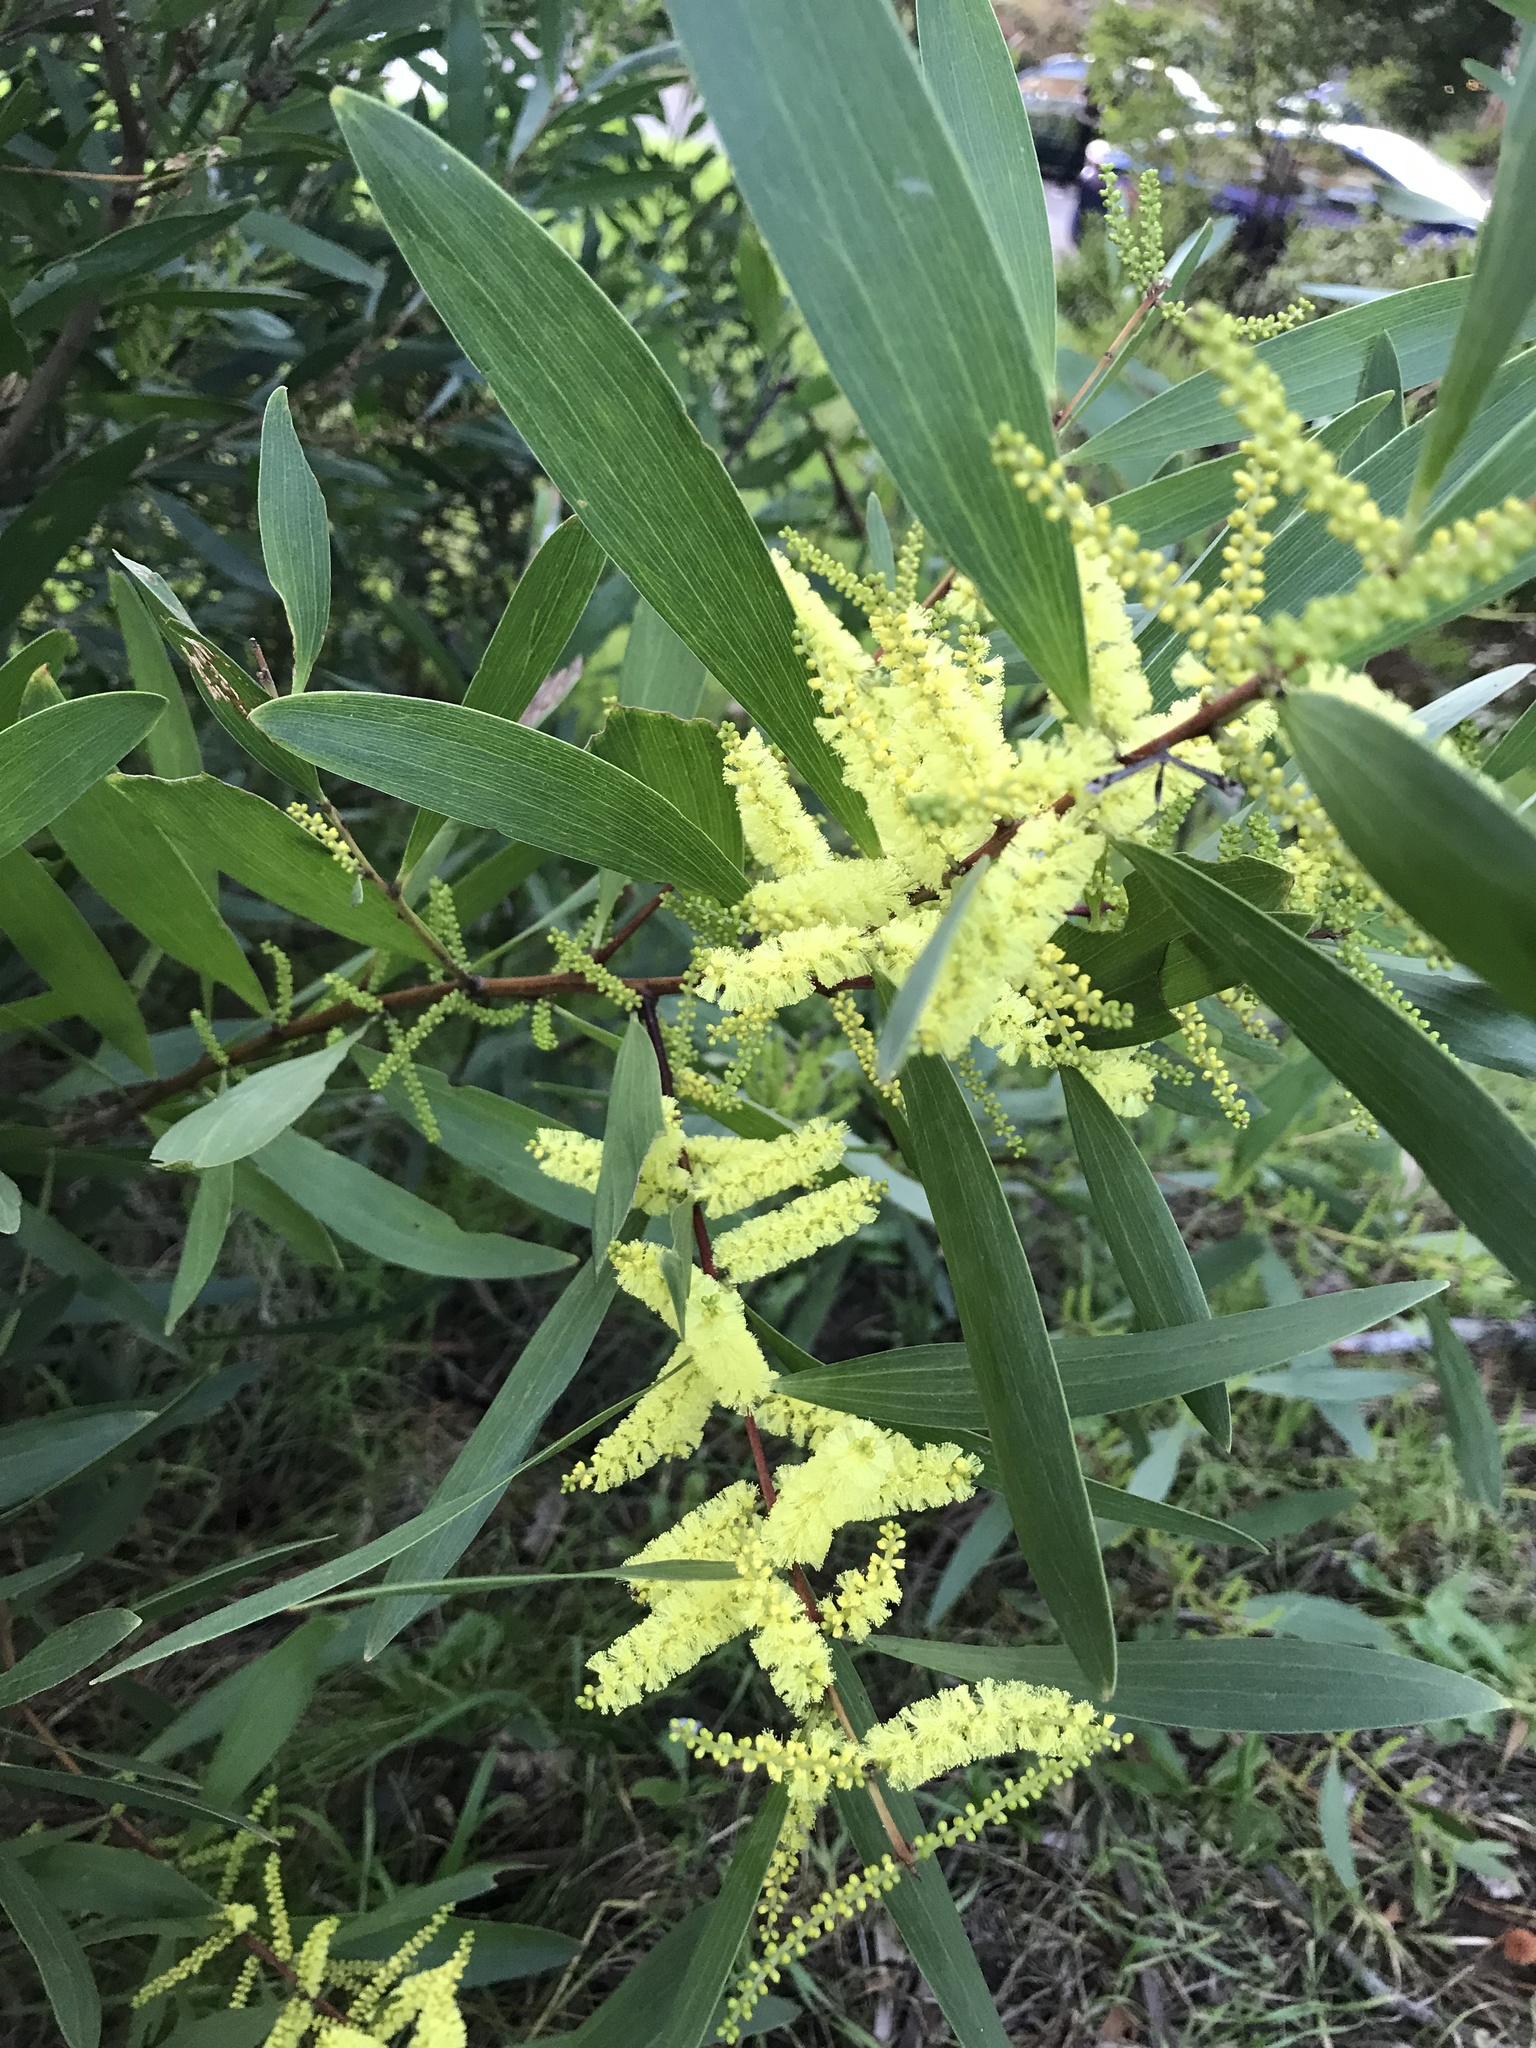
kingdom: Plantae
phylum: Tracheophyta
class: Magnoliopsida
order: Fabales
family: Fabaceae
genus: Acacia
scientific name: Acacia longifolia
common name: Sydney golden wattle
